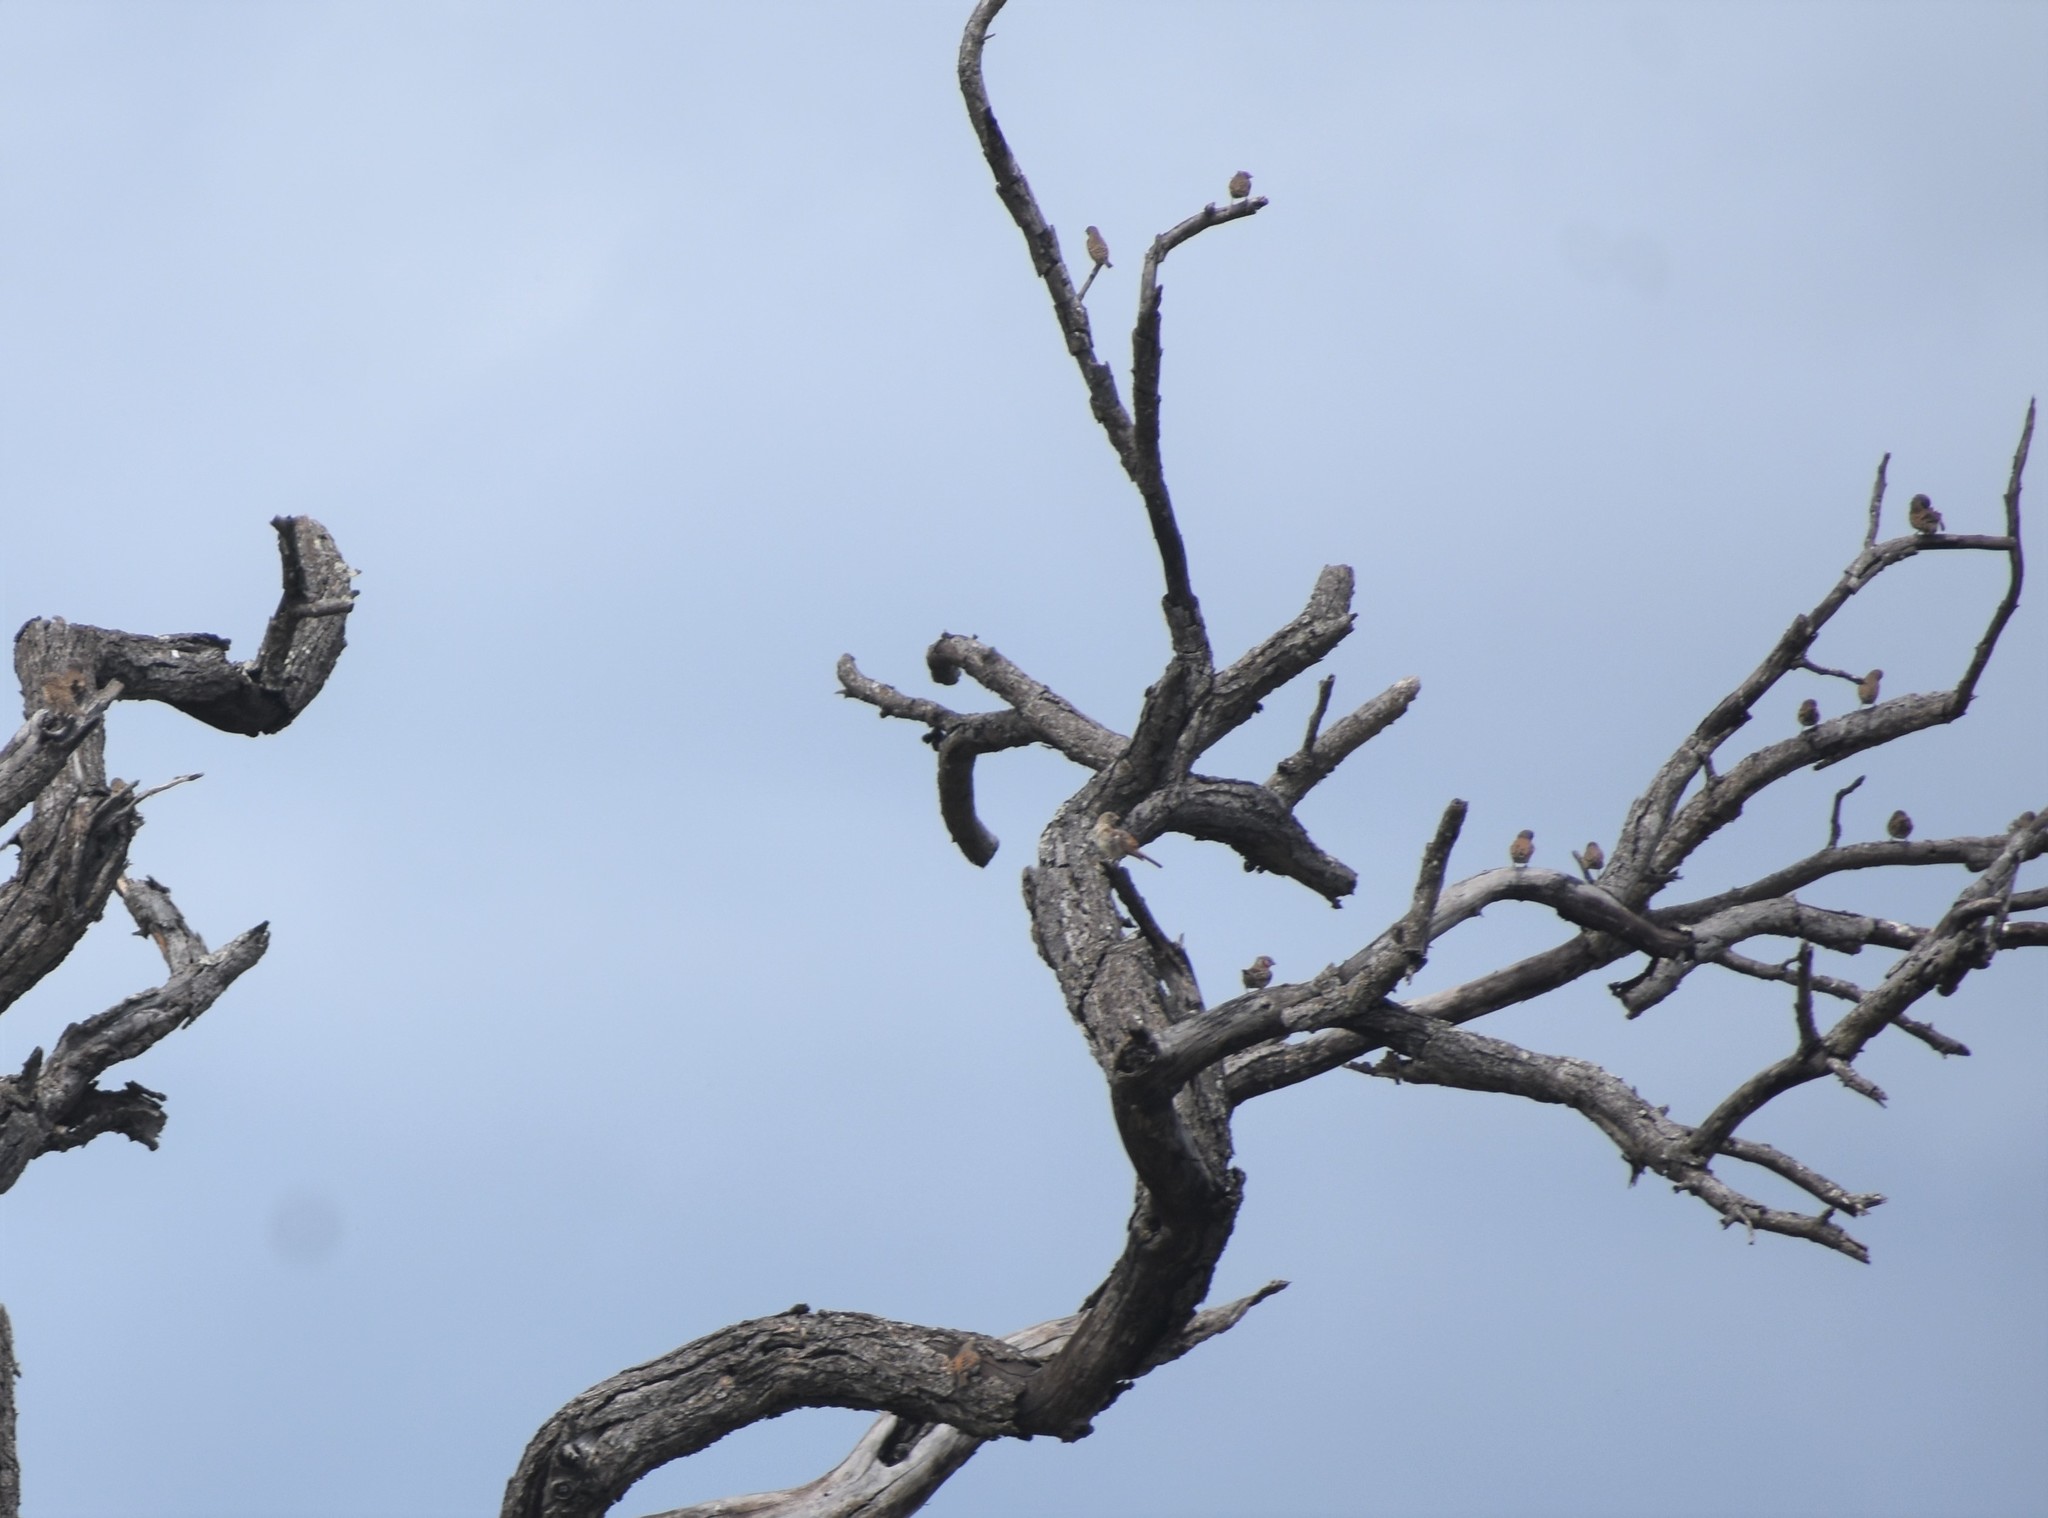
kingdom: Animalia
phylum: Chordata
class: Aves
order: Passeriformes
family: Estrildidae
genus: Amadina
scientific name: Amadina fasciata
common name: Cut-throat finch
